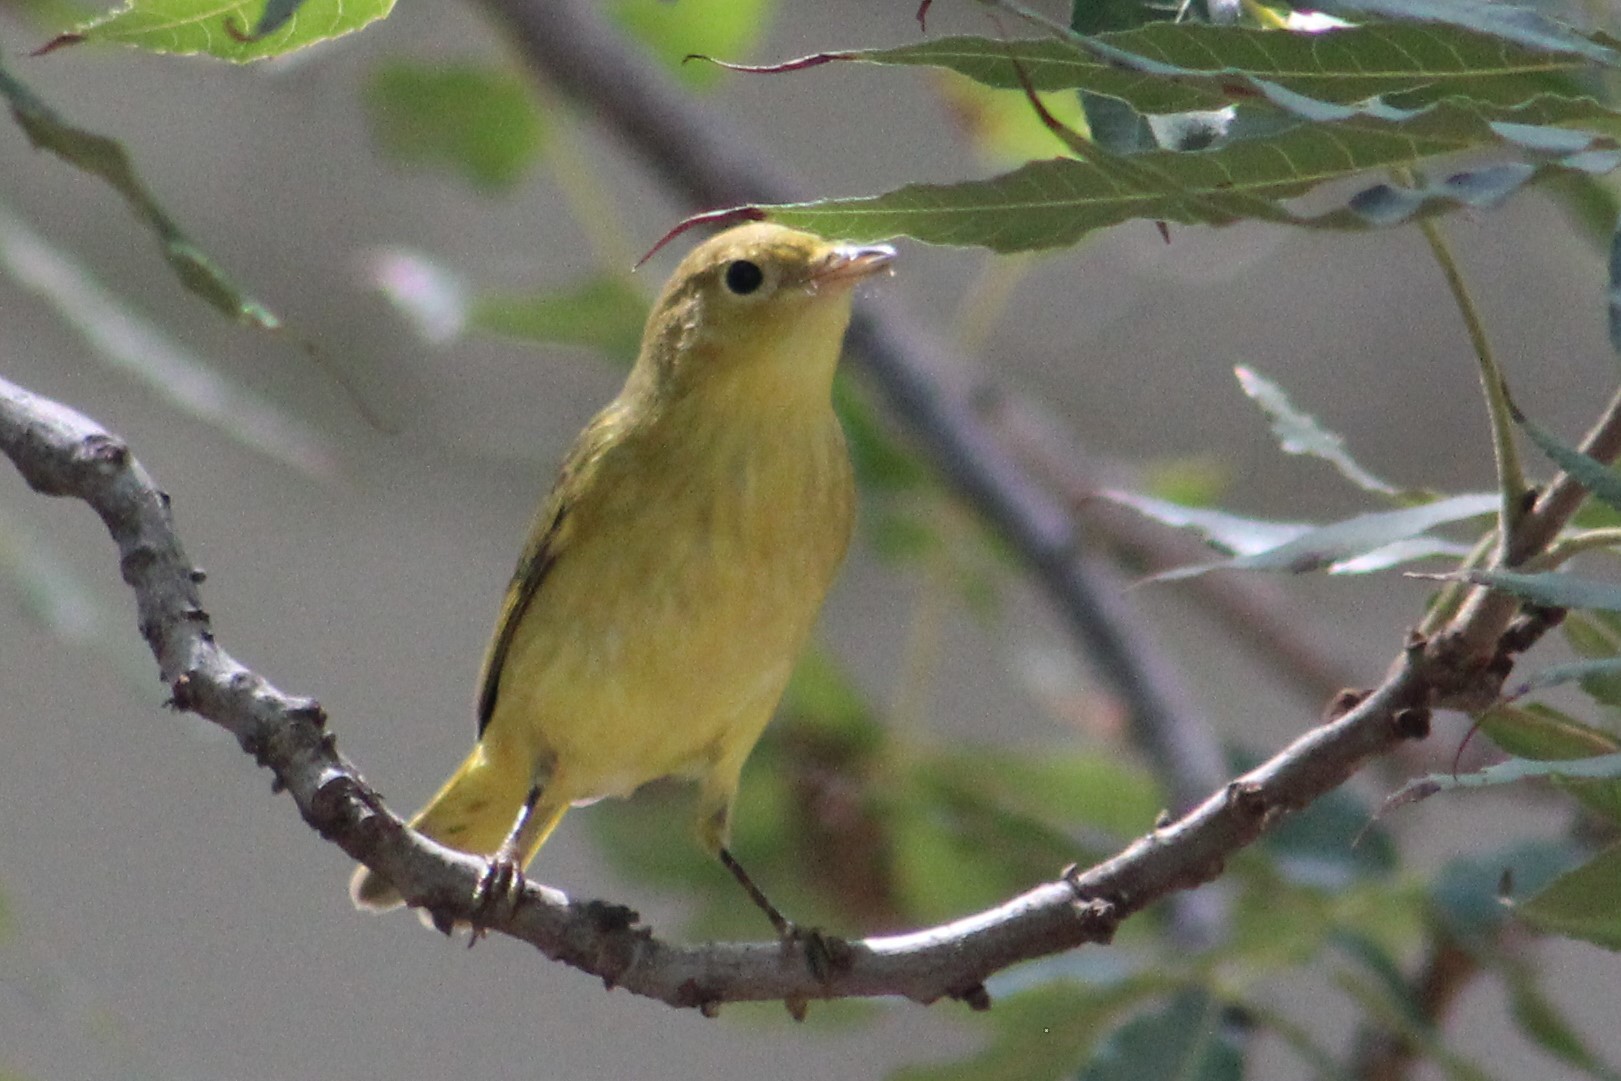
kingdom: Animalia
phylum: Chordata
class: Aves
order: Passeriformes
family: Parulidae
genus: Setophaga
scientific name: Setophaga petechia
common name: Yellow warbler
